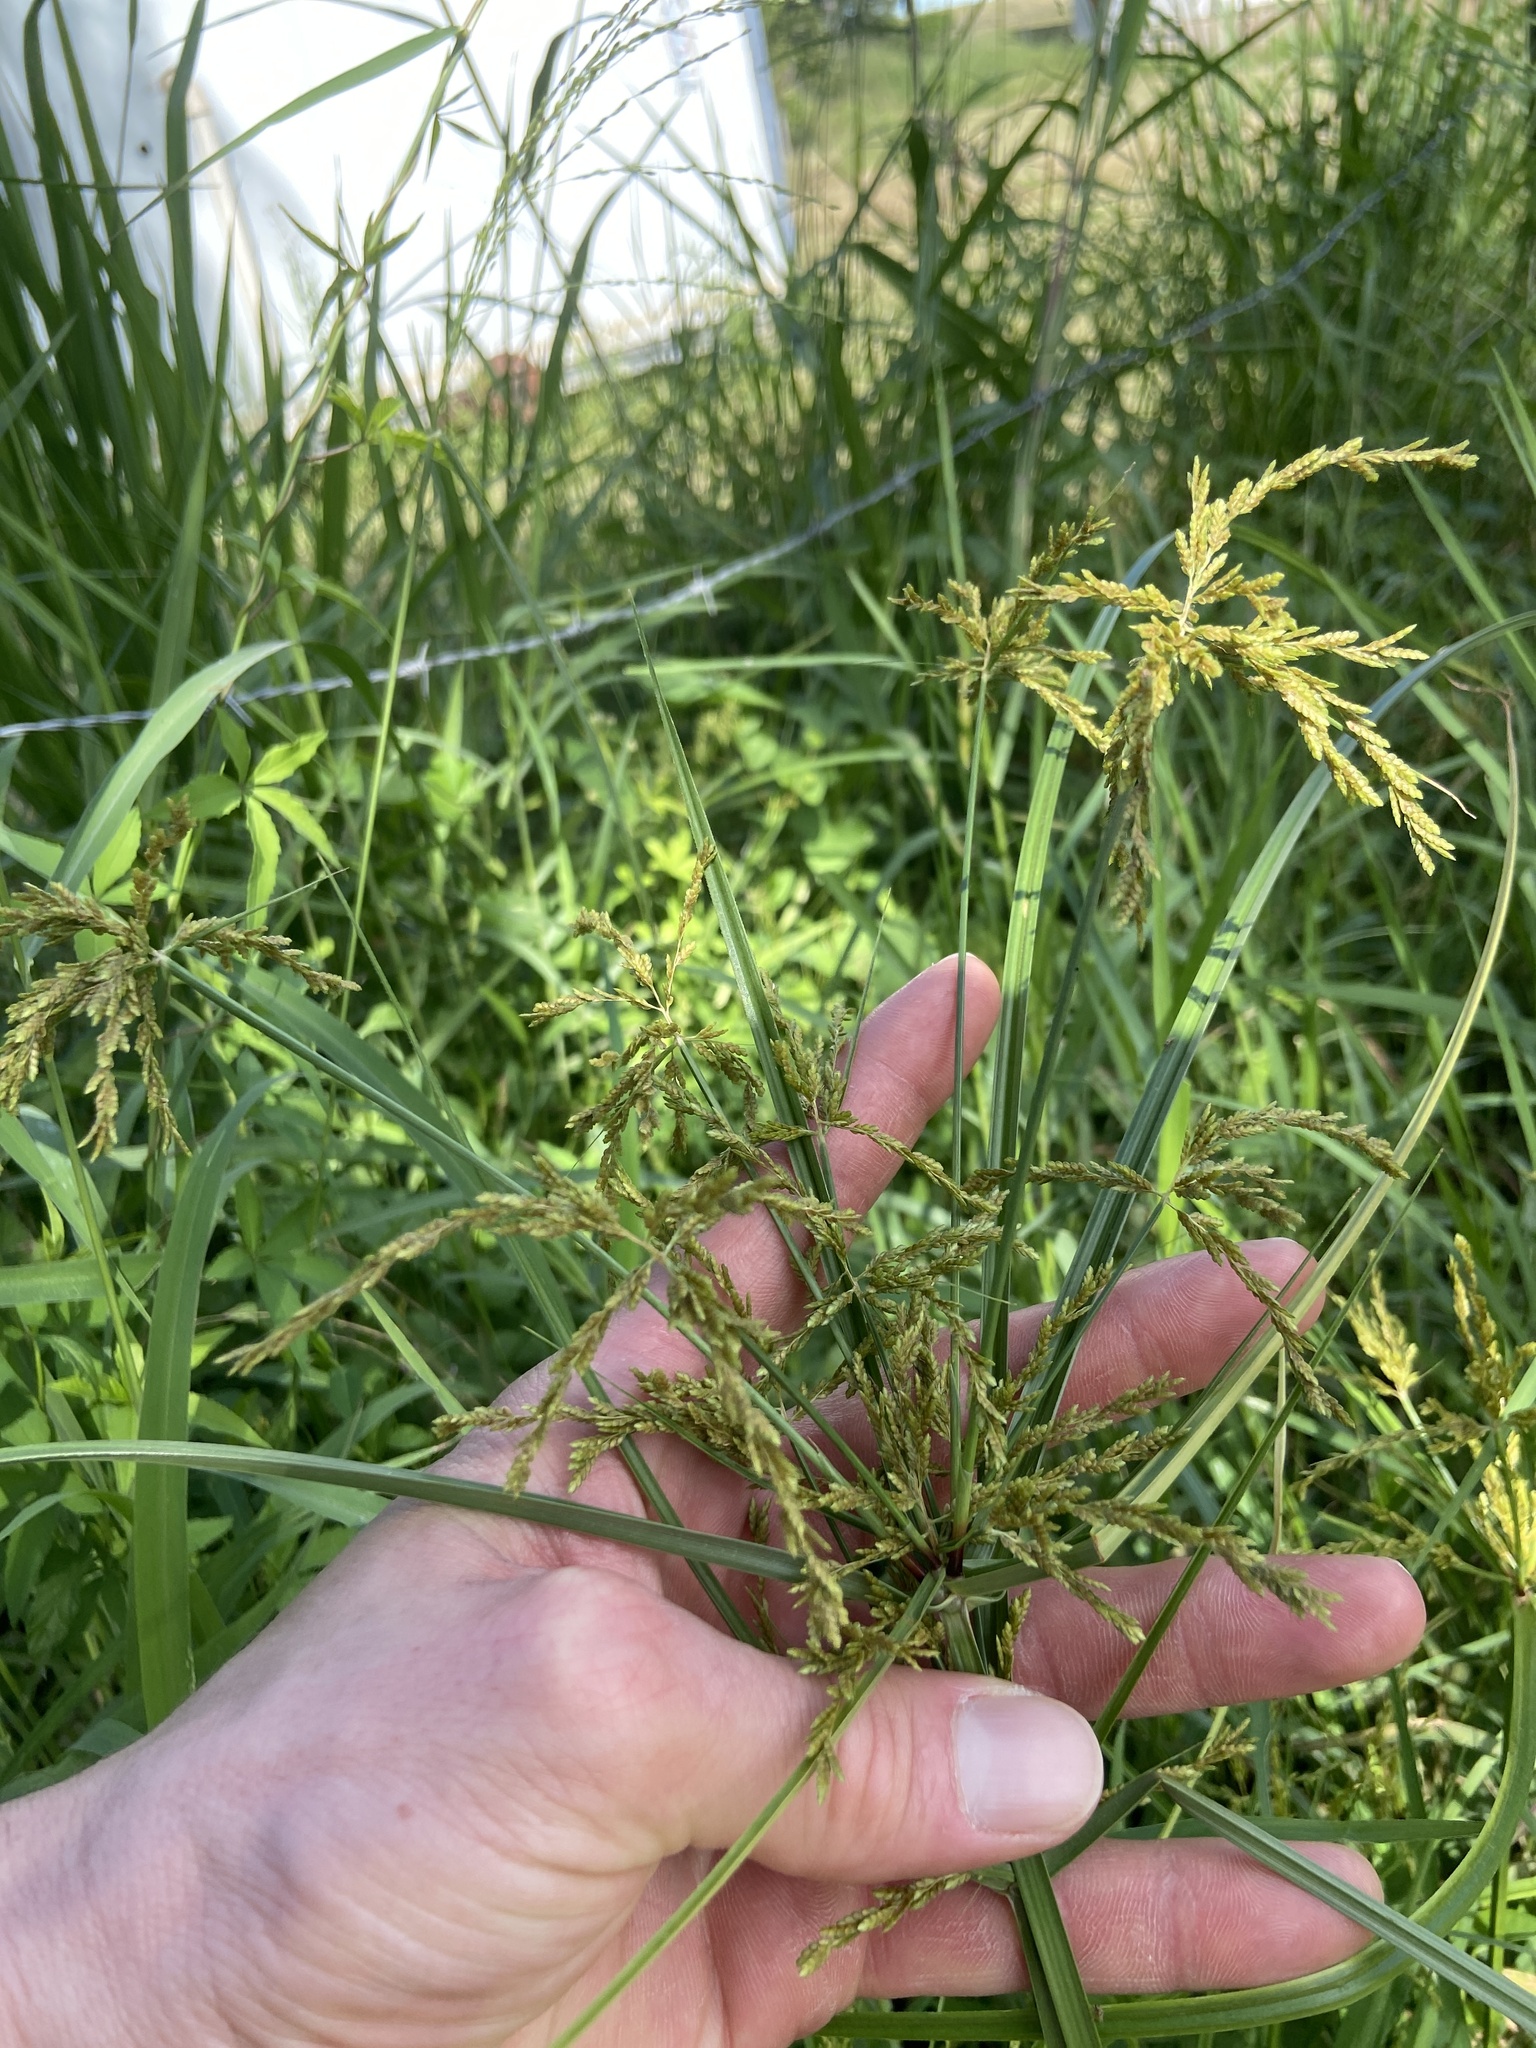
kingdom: Plantae
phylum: Tracheophyta
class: Liliopsida
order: Poales
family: Cyperaceae
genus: Cyperus
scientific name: Cyperus iria
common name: Ricefield flatsedge
